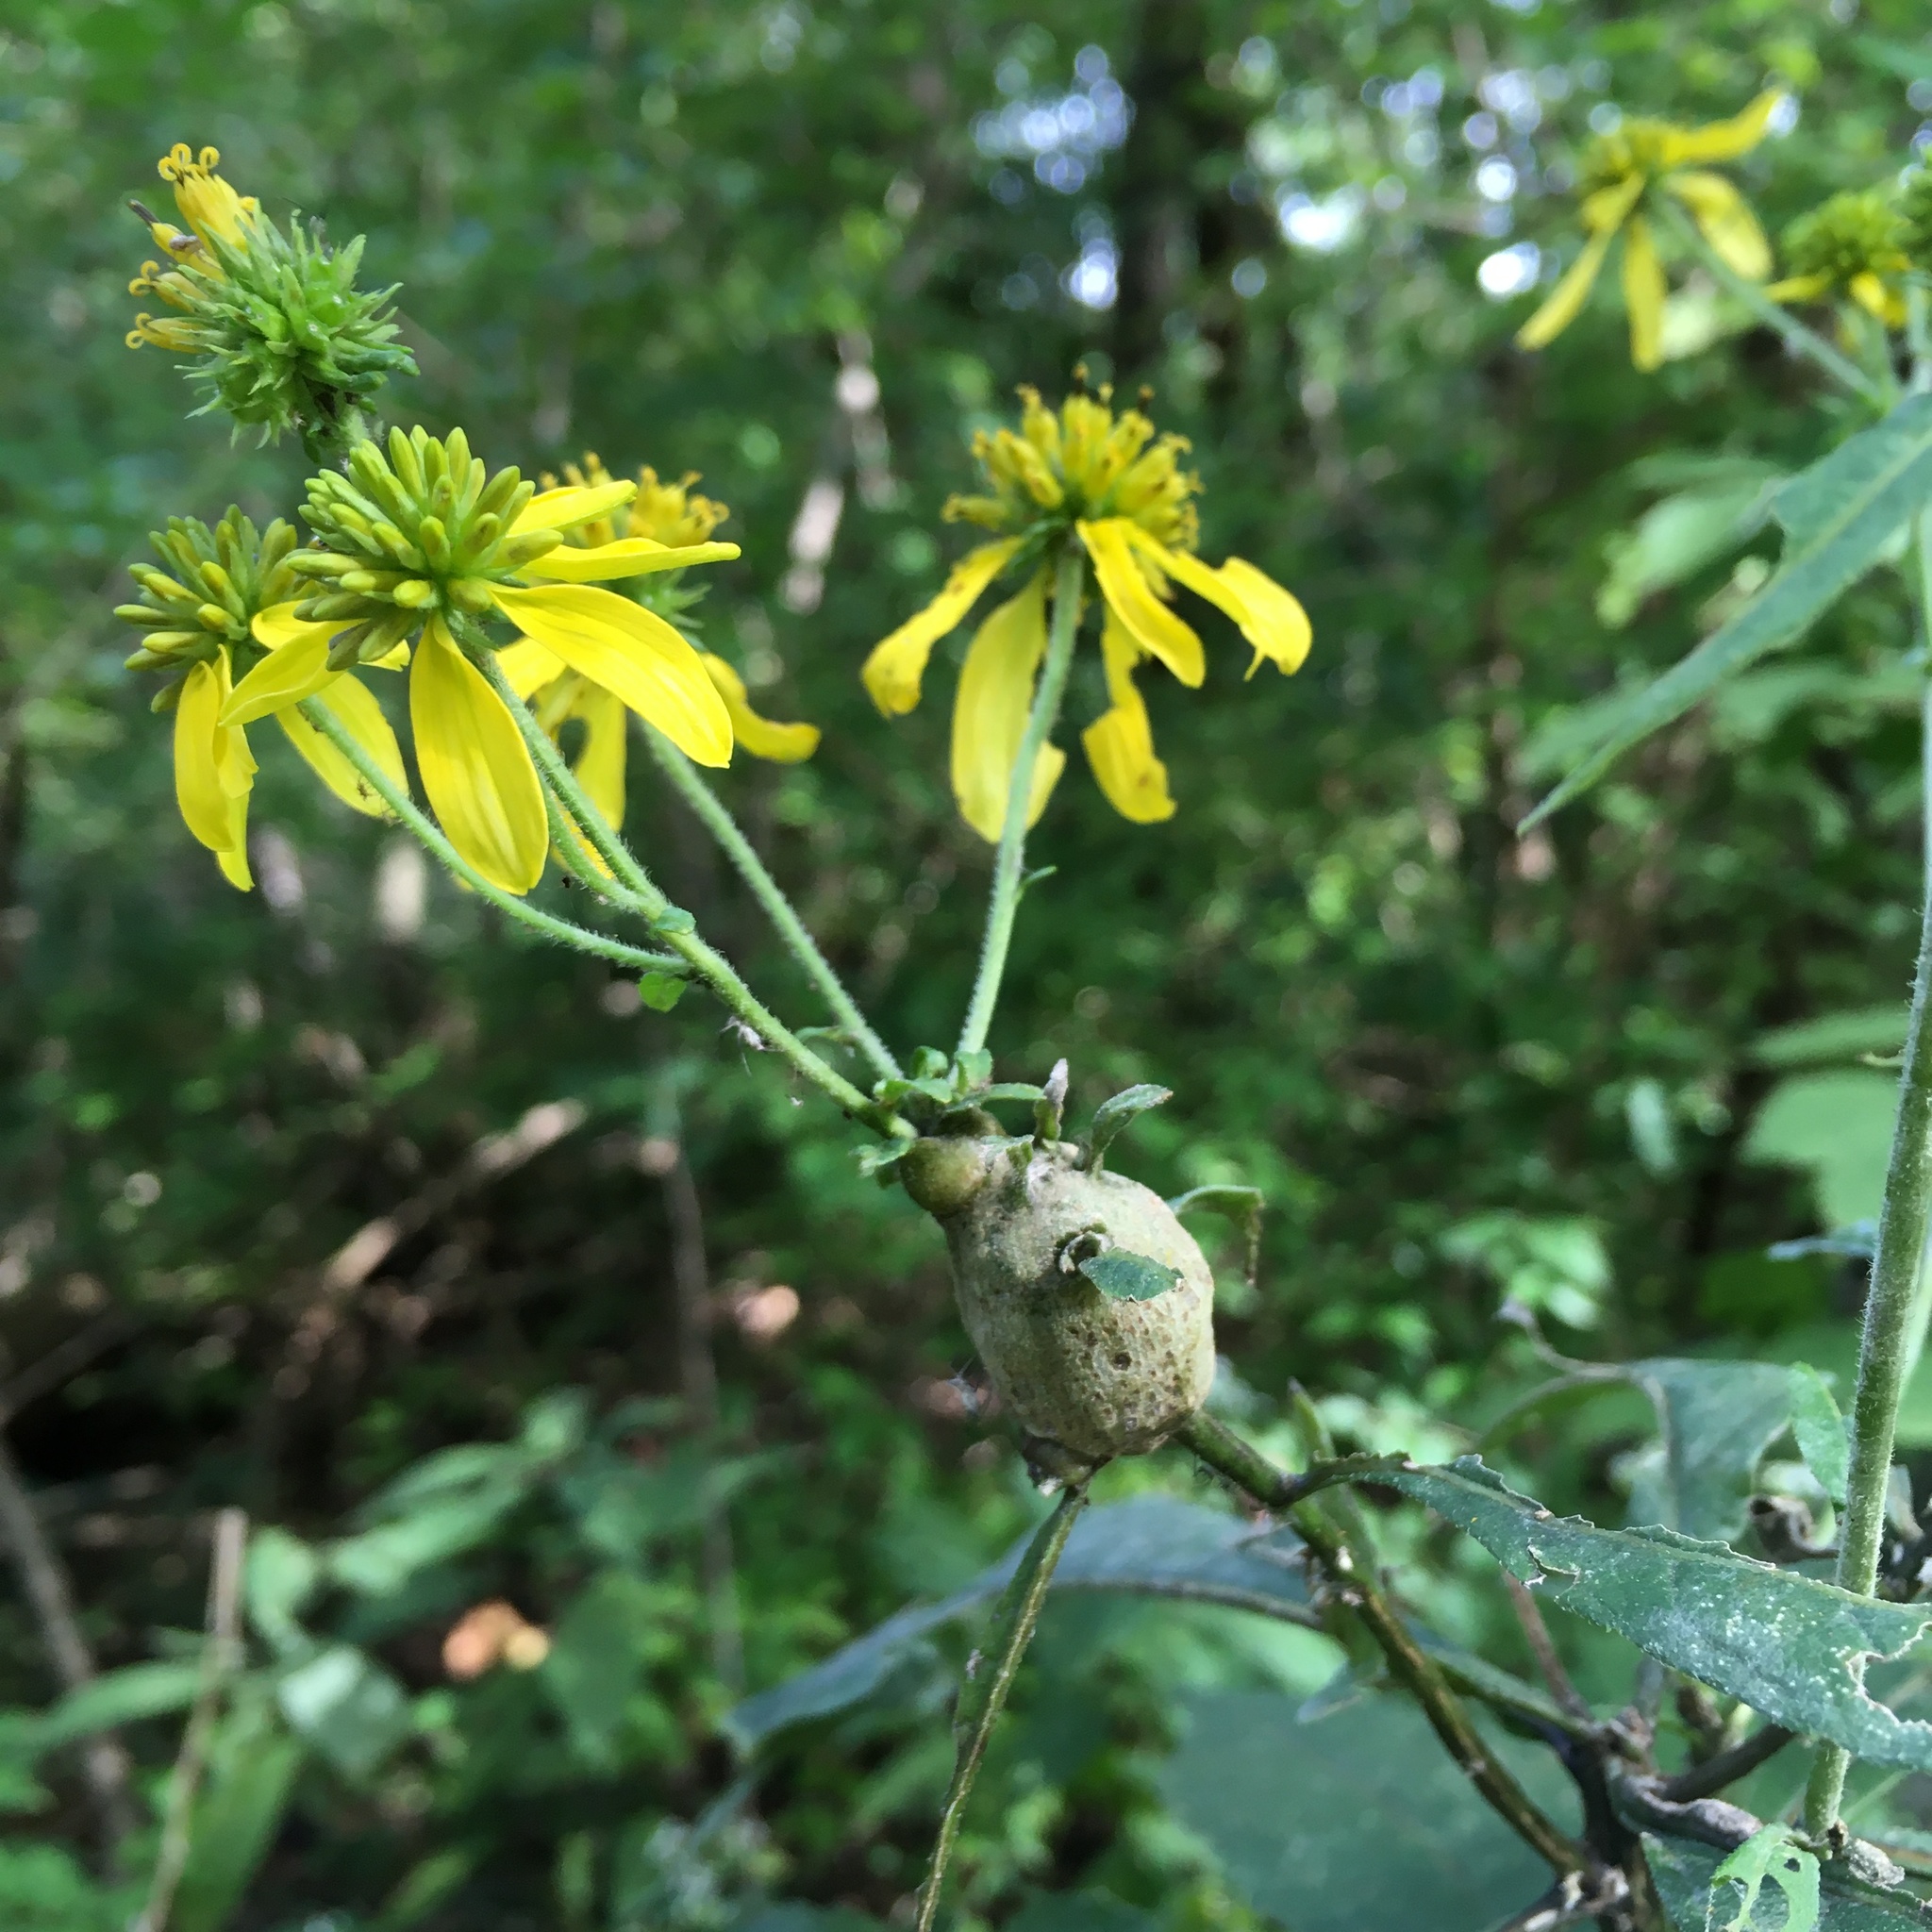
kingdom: Plantae
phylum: Tracheophyta
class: Magnoliopsida
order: Asterales
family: Asteraceae
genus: Verbesina
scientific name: Verbesina alternifolia
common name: Wingstem
